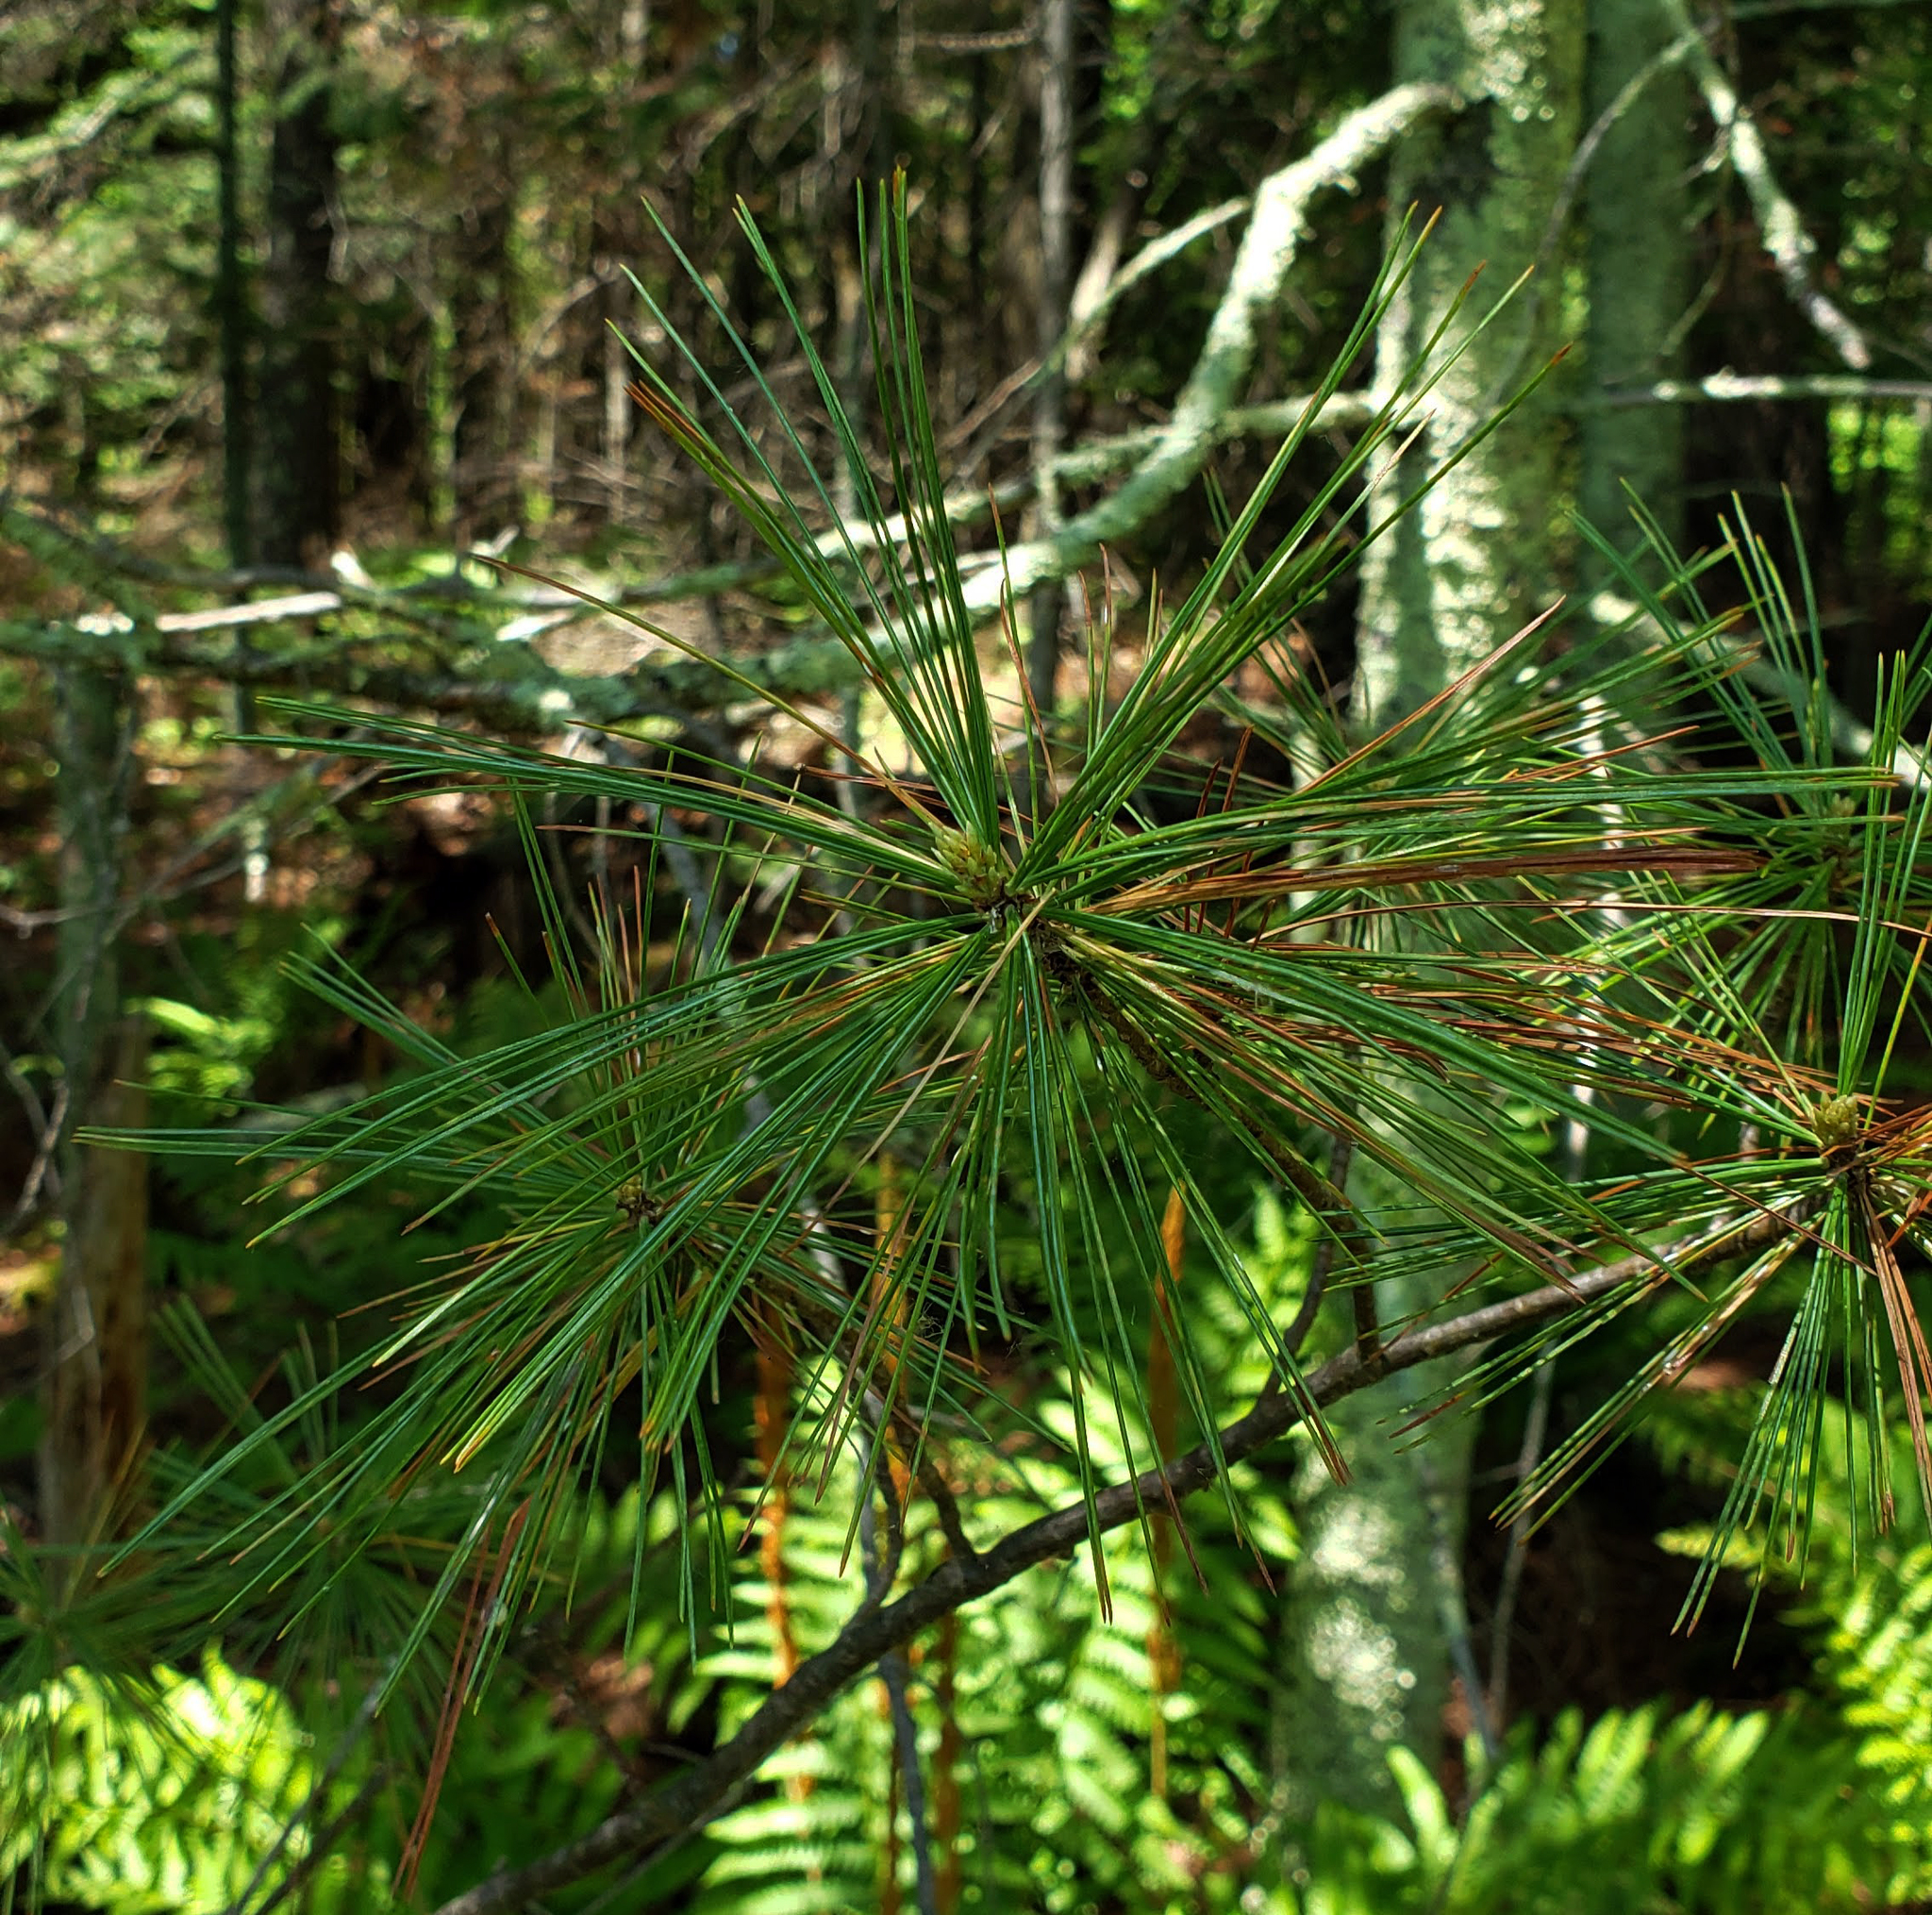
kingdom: Plantae
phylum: Tracheophyta
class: Pinopsida
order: Pinales
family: Pinaceae
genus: Pinus
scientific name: Pinus strobus
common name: Weymouth pine
